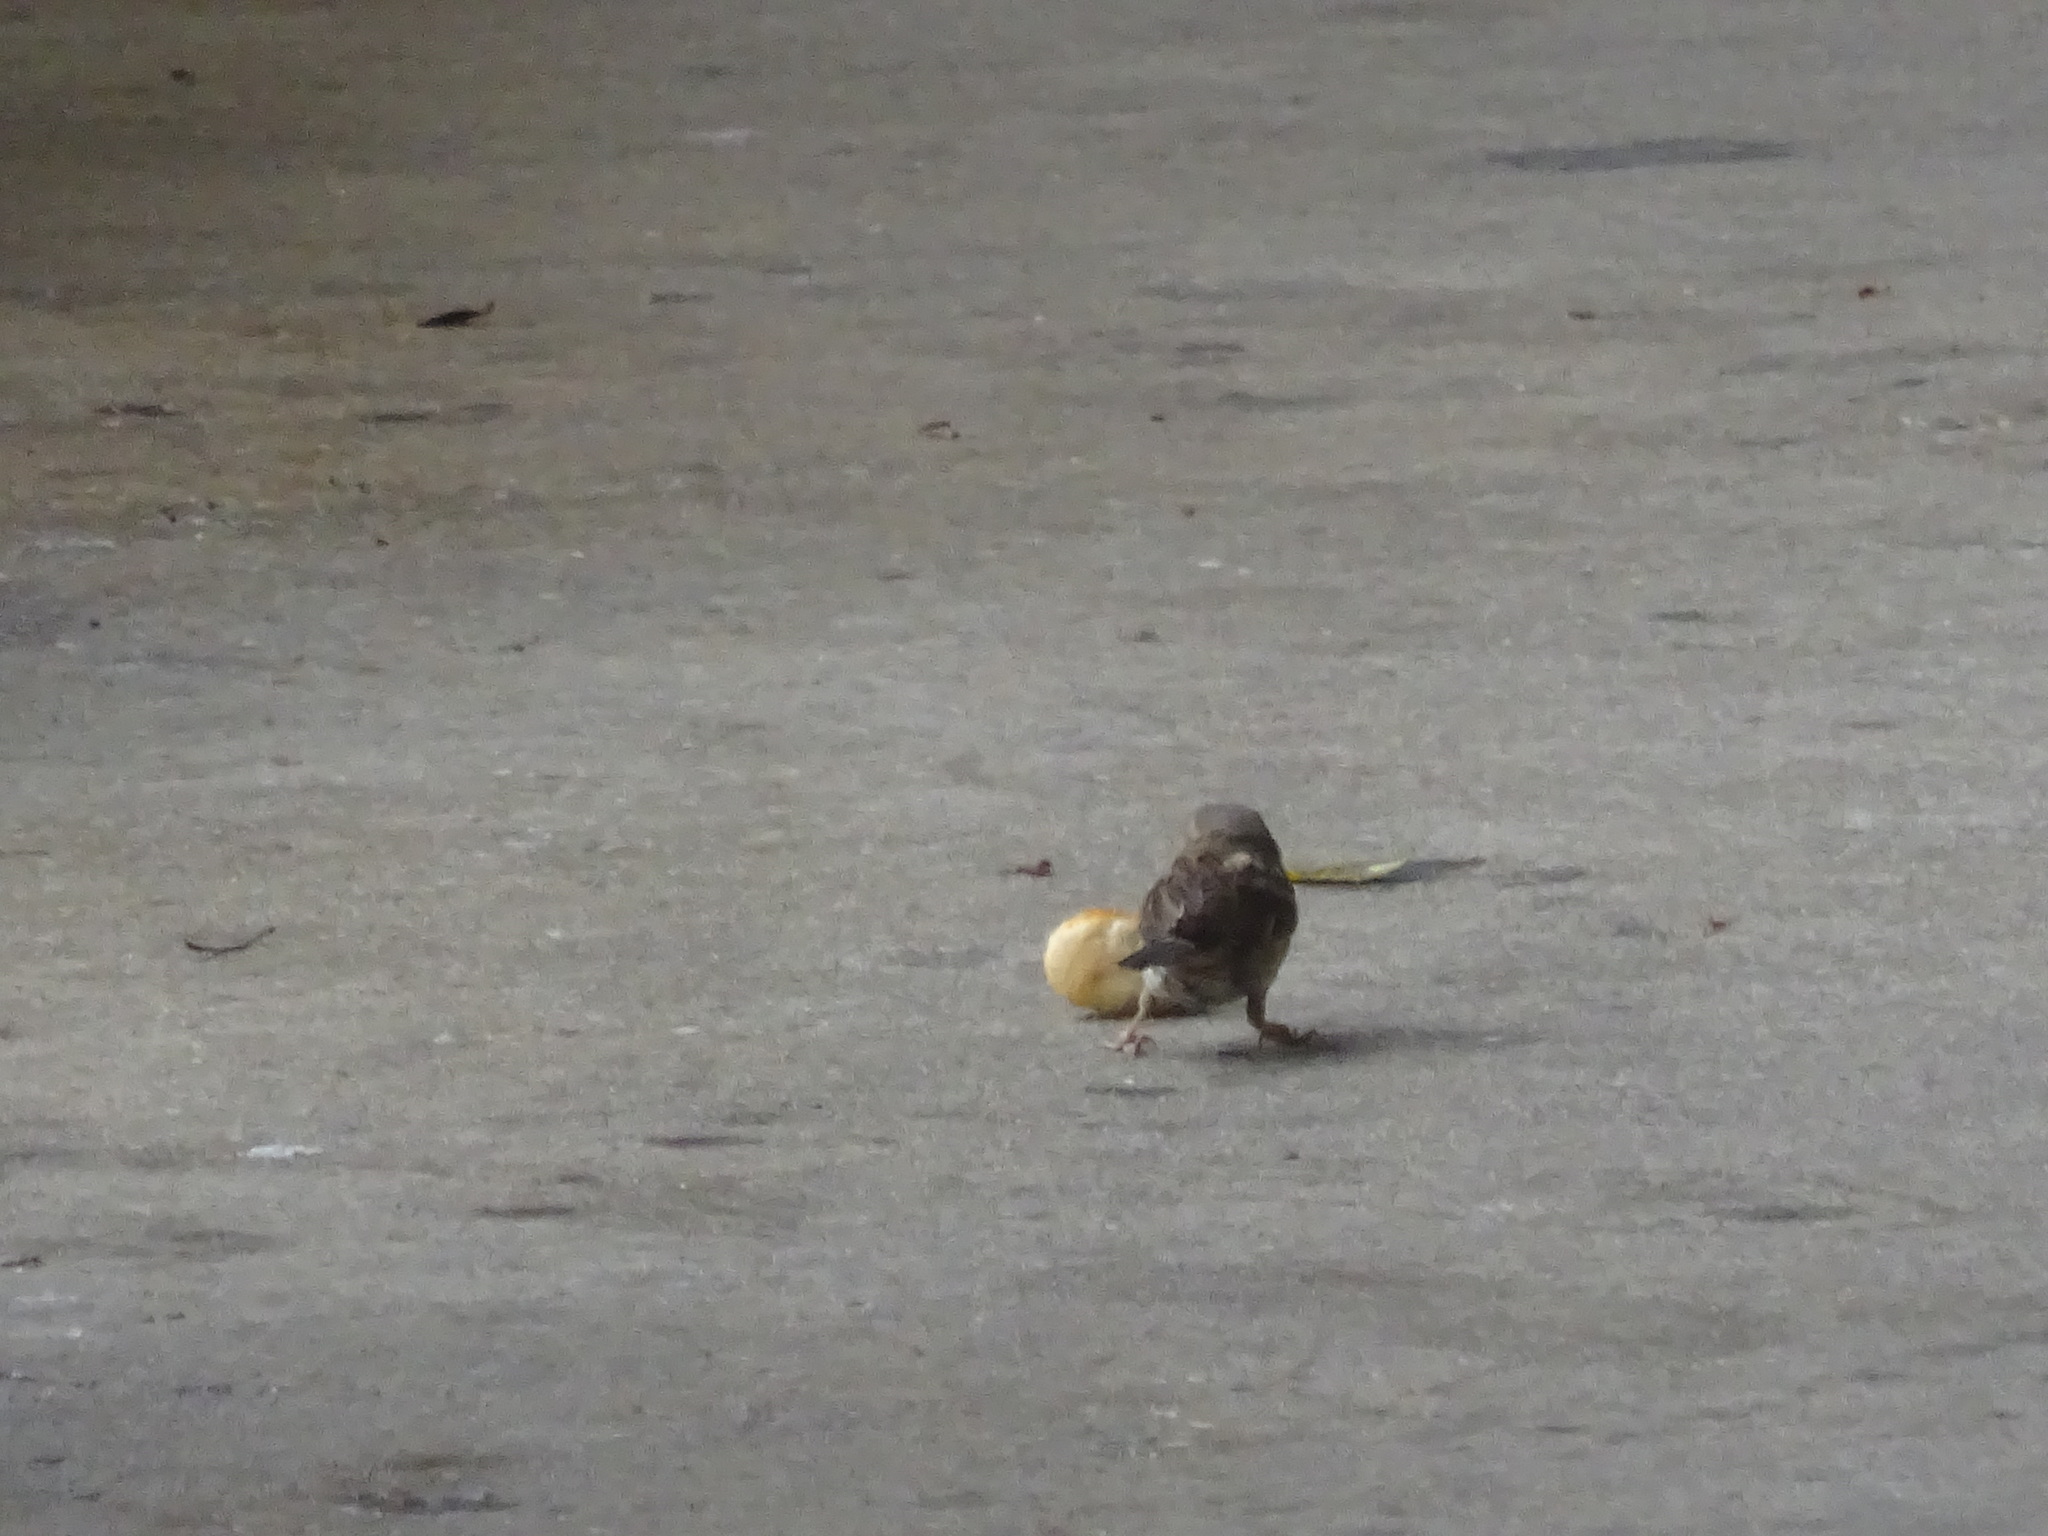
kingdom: Animalia
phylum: Chordata
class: Aves
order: Passeriformes
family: Passeridae
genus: Passer
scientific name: Passer domesticus
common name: House sparrow
